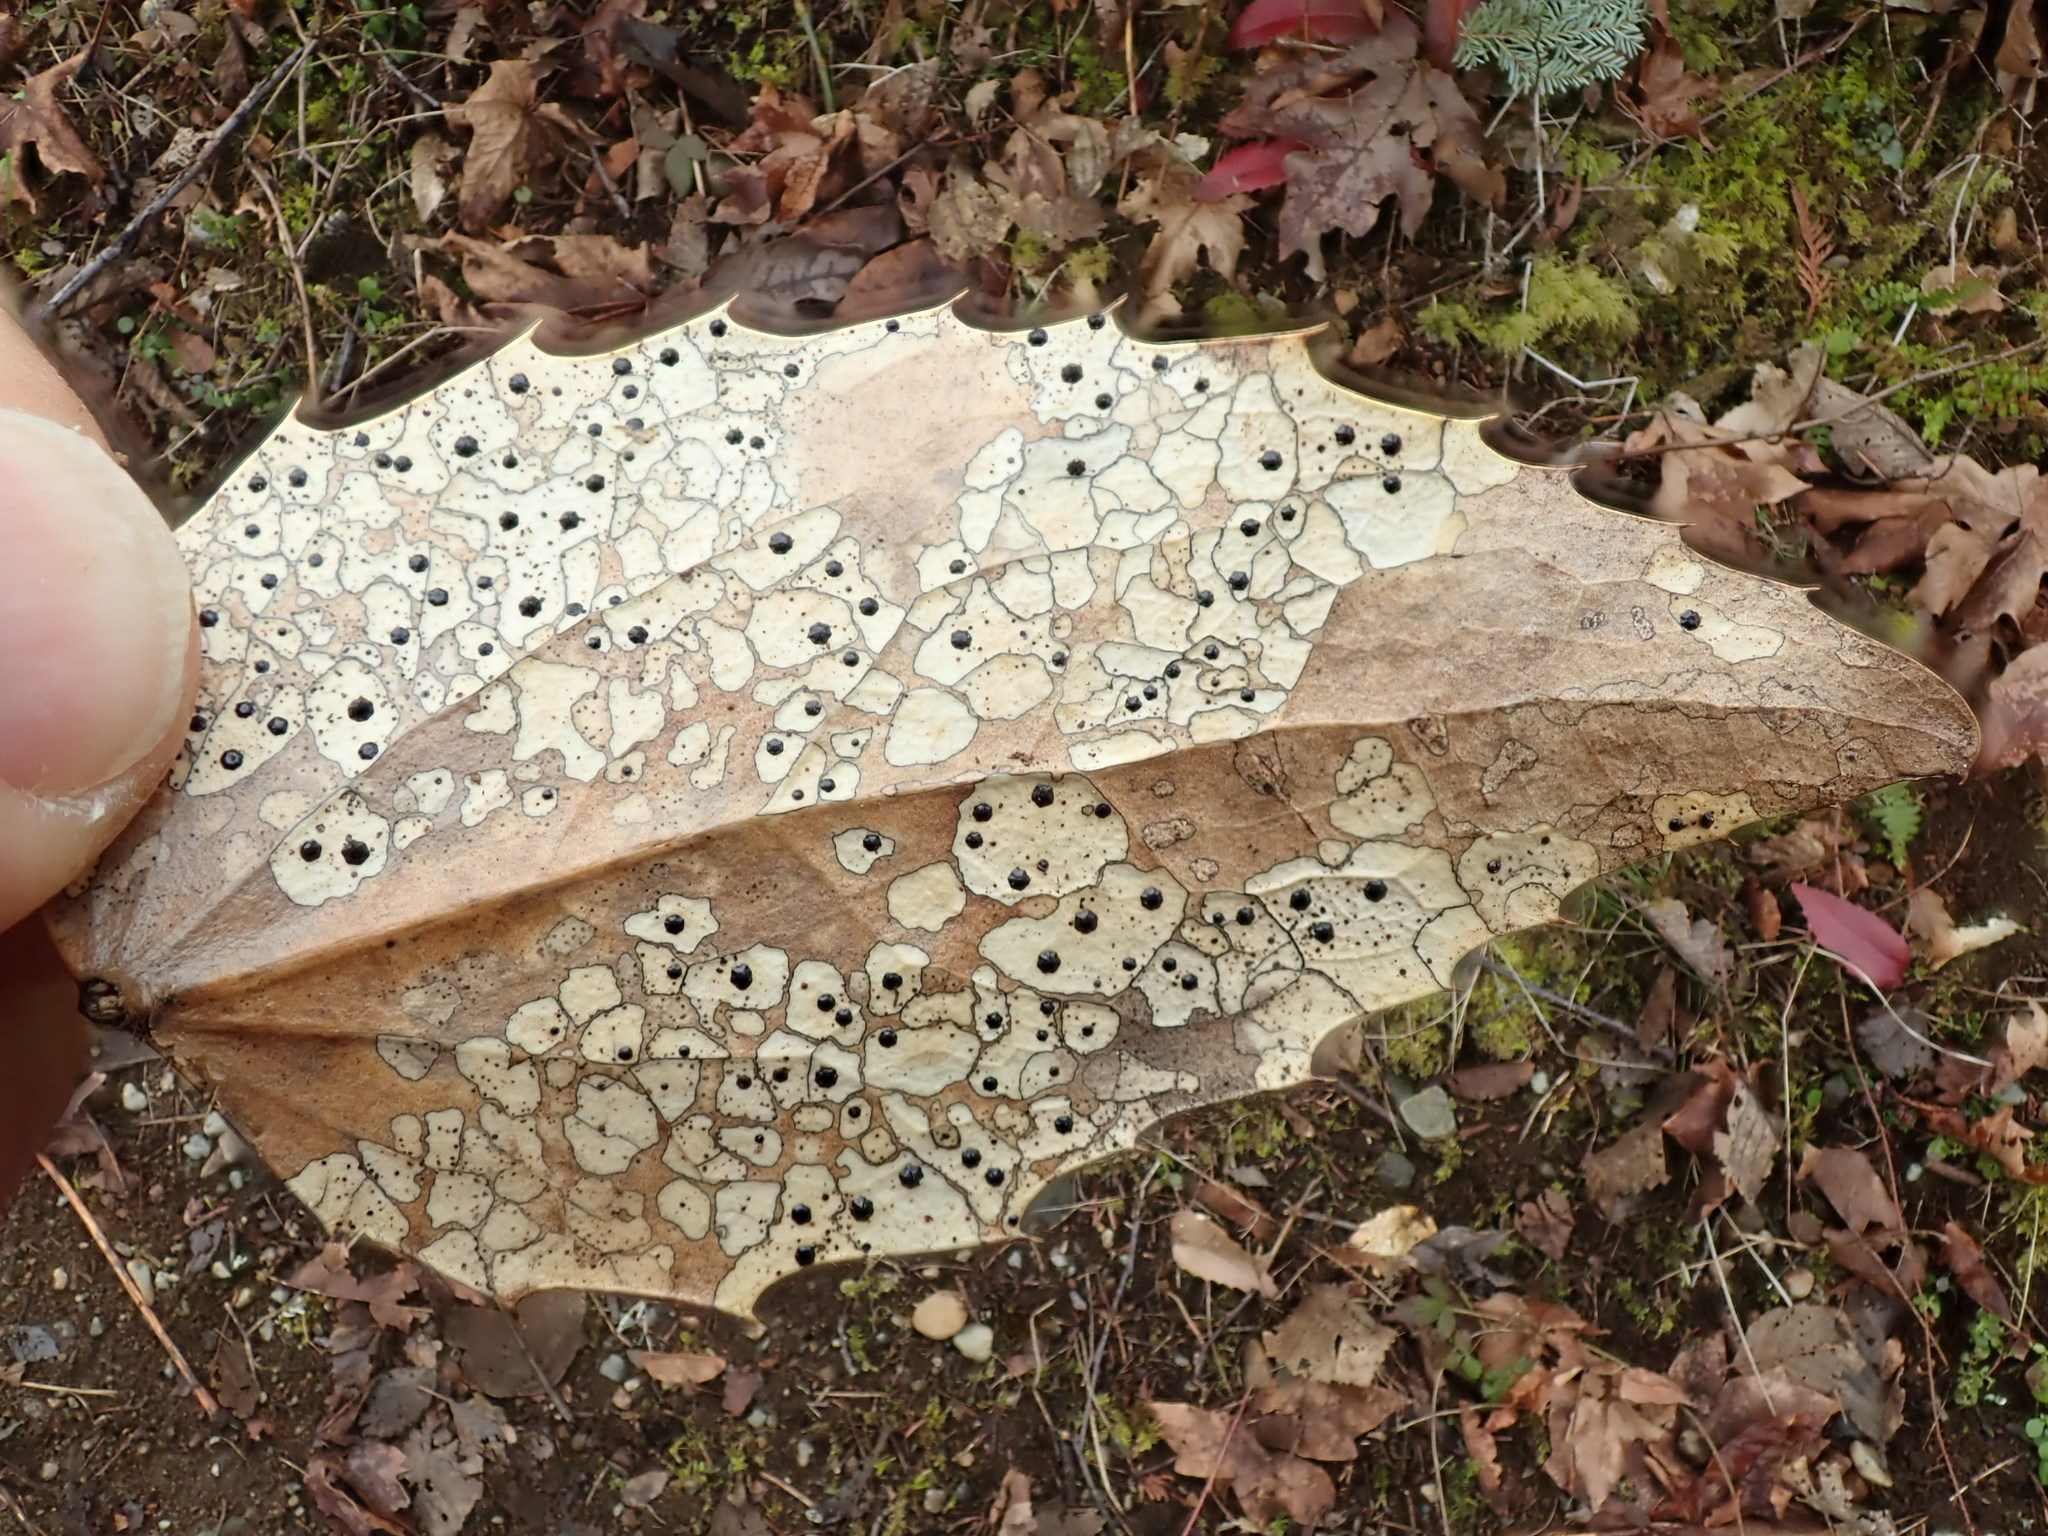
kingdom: Fungi
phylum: Ascomycota
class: Leotiomycetes
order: Rhytismatales
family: Rhytismataceae
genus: Coccomyces
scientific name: Coccomyces dentatus
